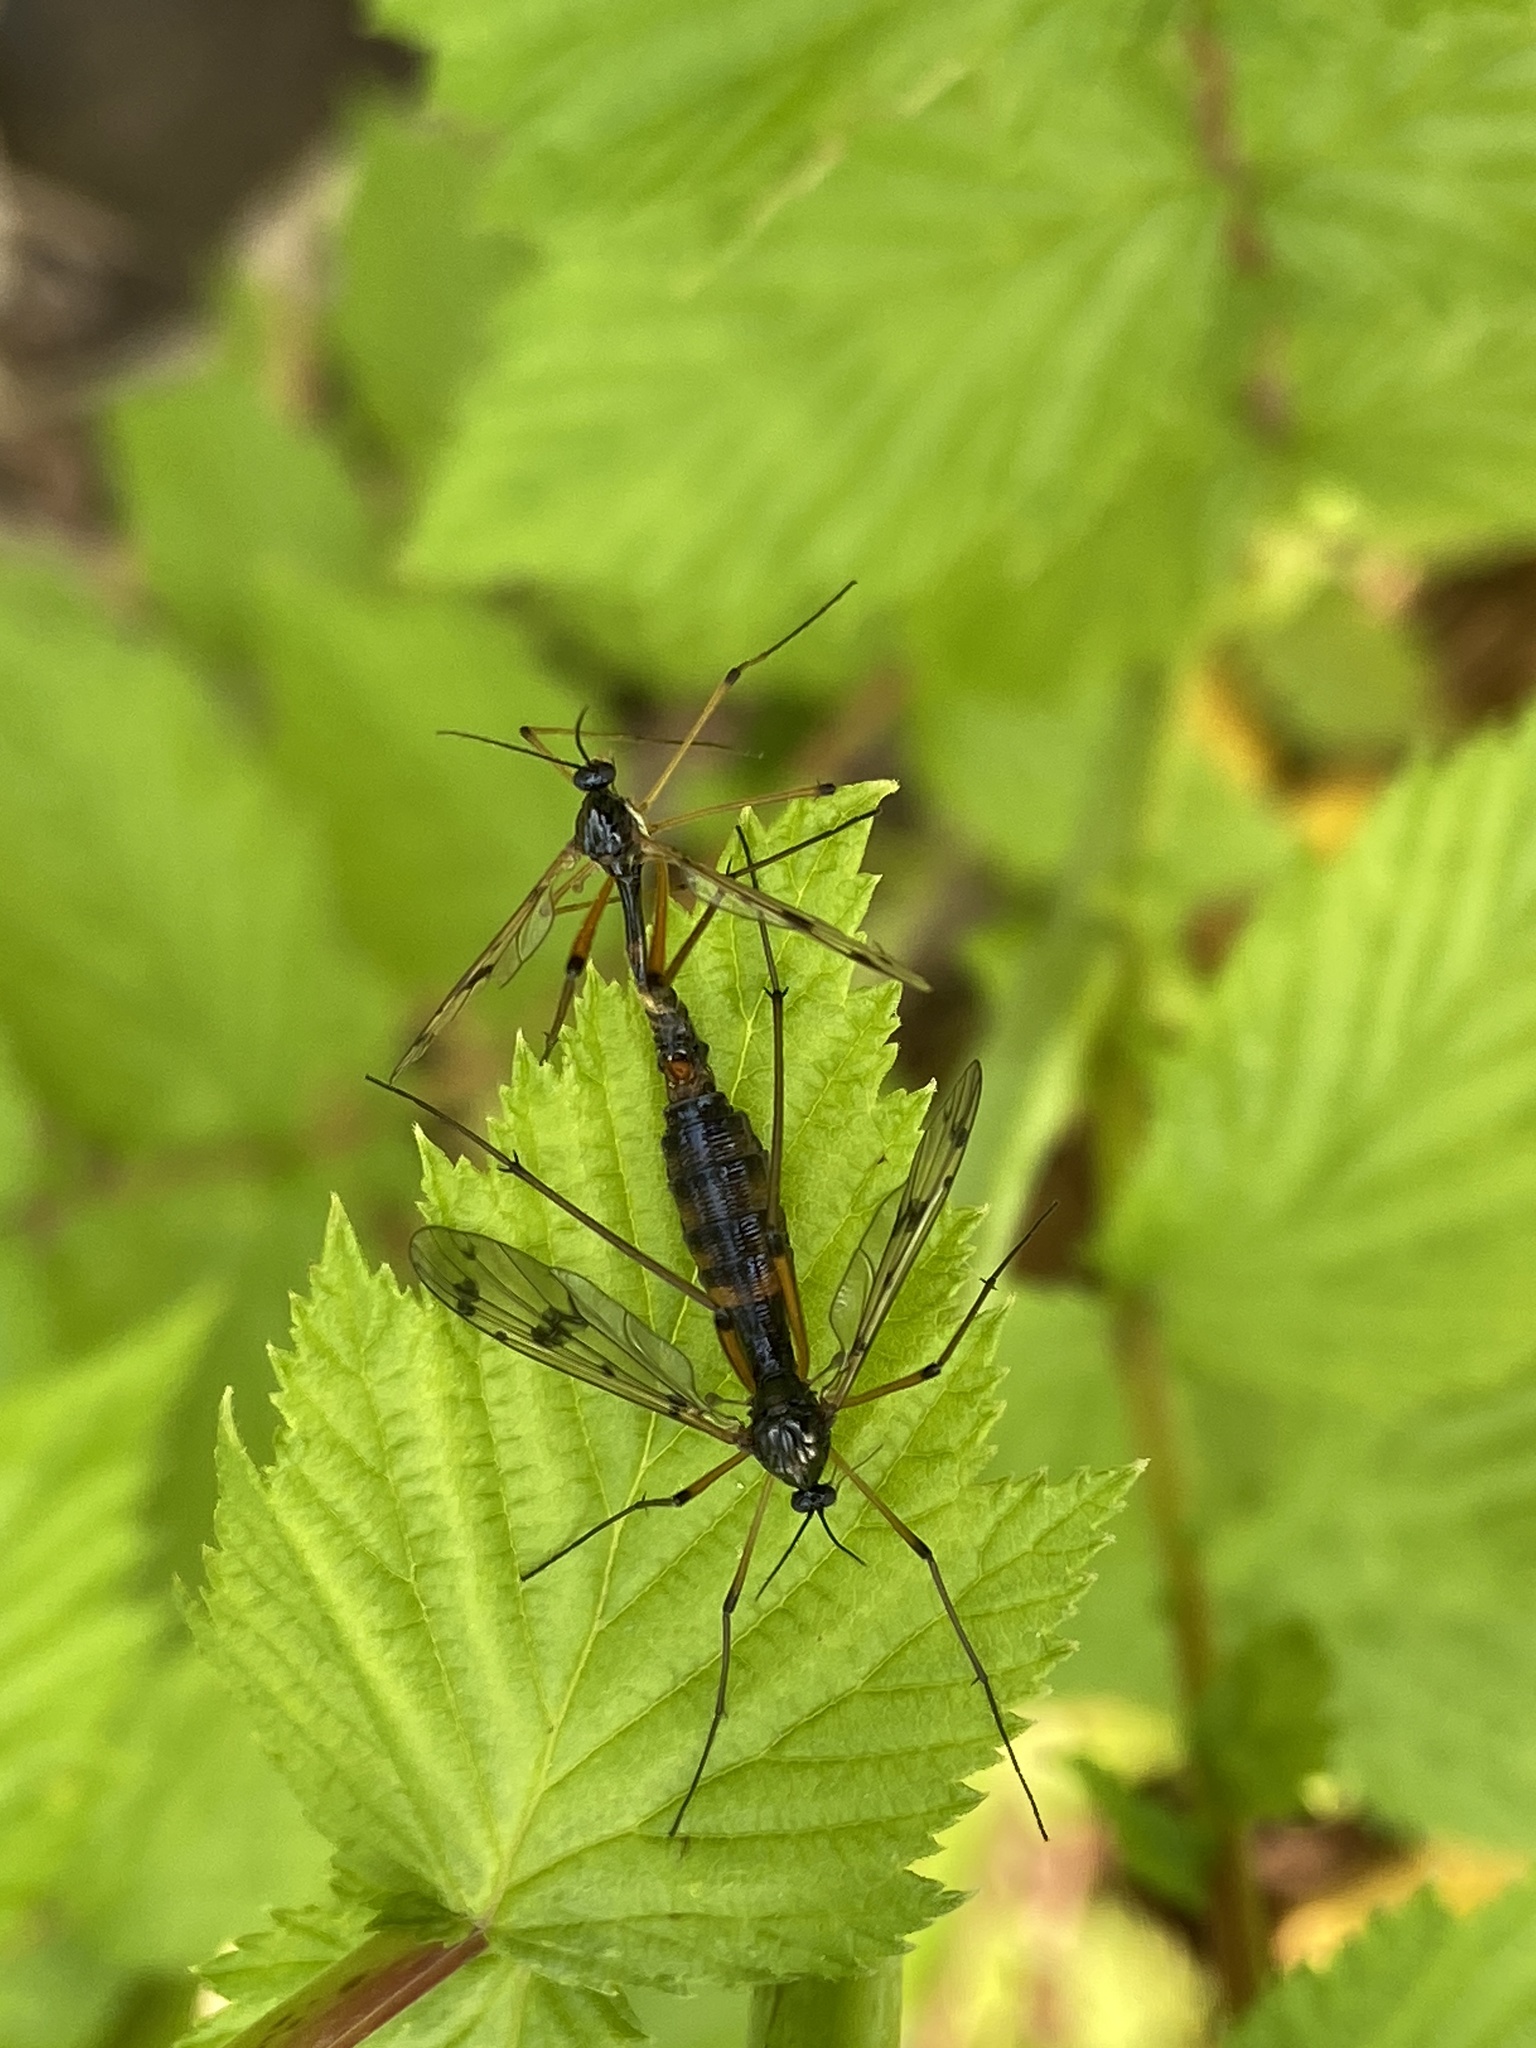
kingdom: Animalia
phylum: Arthropoda
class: Insecta
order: Diptera
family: Ptychopteridae
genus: Ptychoptera
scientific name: Ptychoptera contaminata
